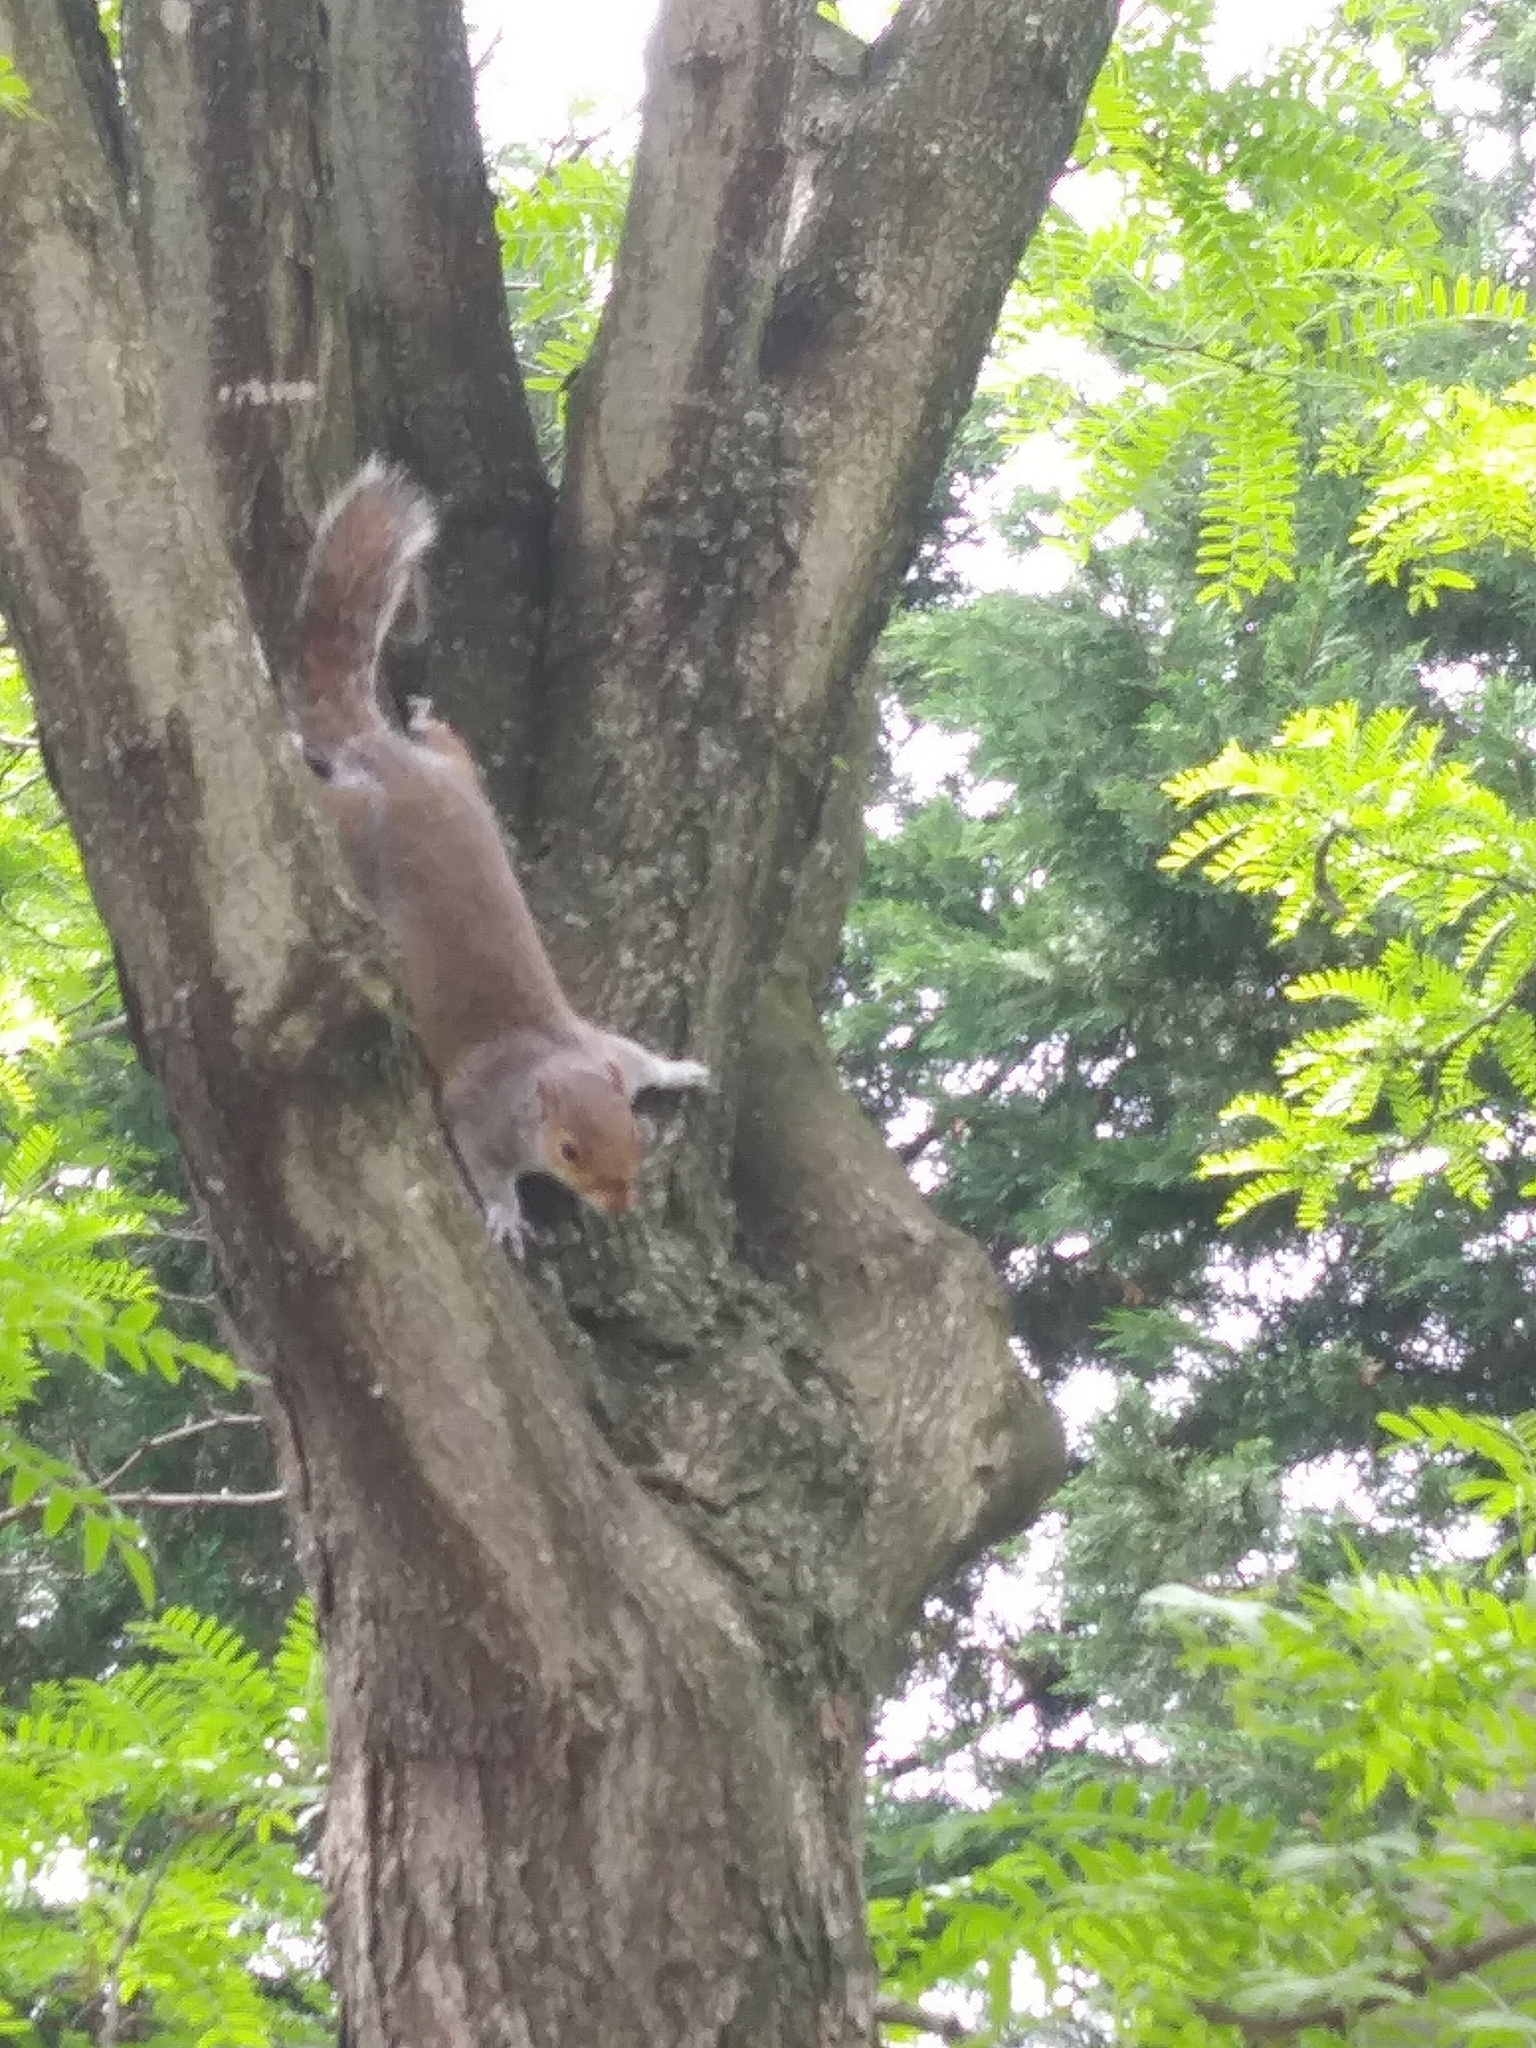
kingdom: Animalia
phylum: Chordata
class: Mammalia
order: Rodentia
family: Sciuridae
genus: Sciurus
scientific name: Sciurus carolinensis
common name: Eastern gray squirrel
